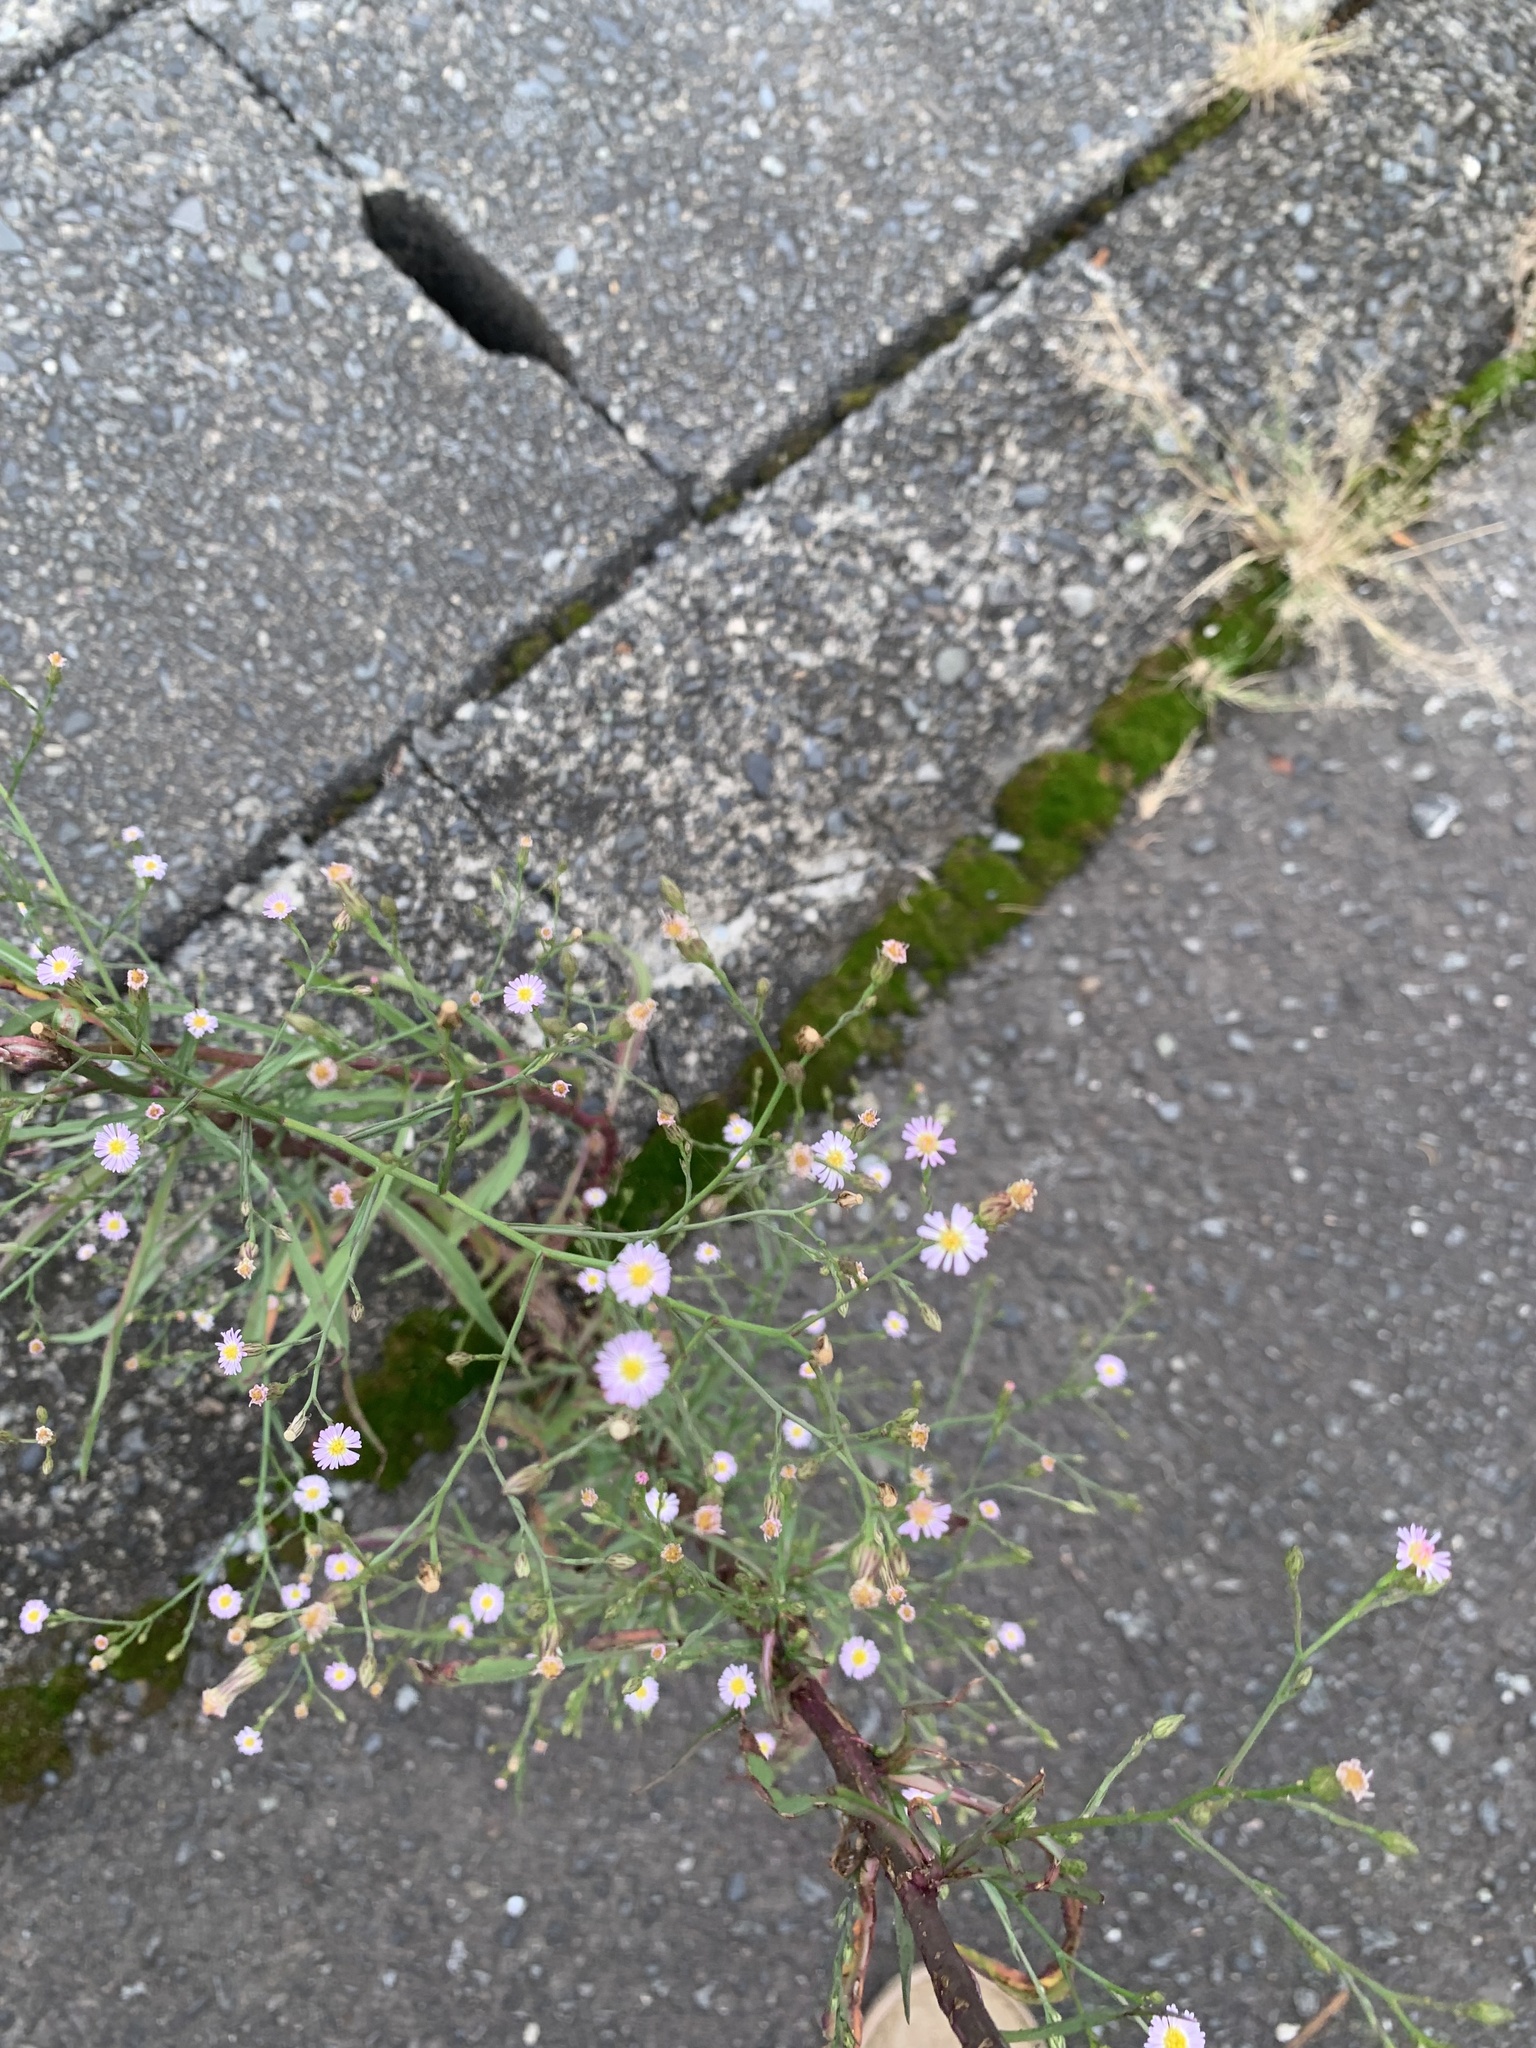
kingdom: Plantae
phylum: Tracheophyta
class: Magnoliopsida
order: Asterales
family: Asteraceae
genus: Symphyotrichum
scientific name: Symphyotrichum subulatum
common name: Annual saltmarsh aster
